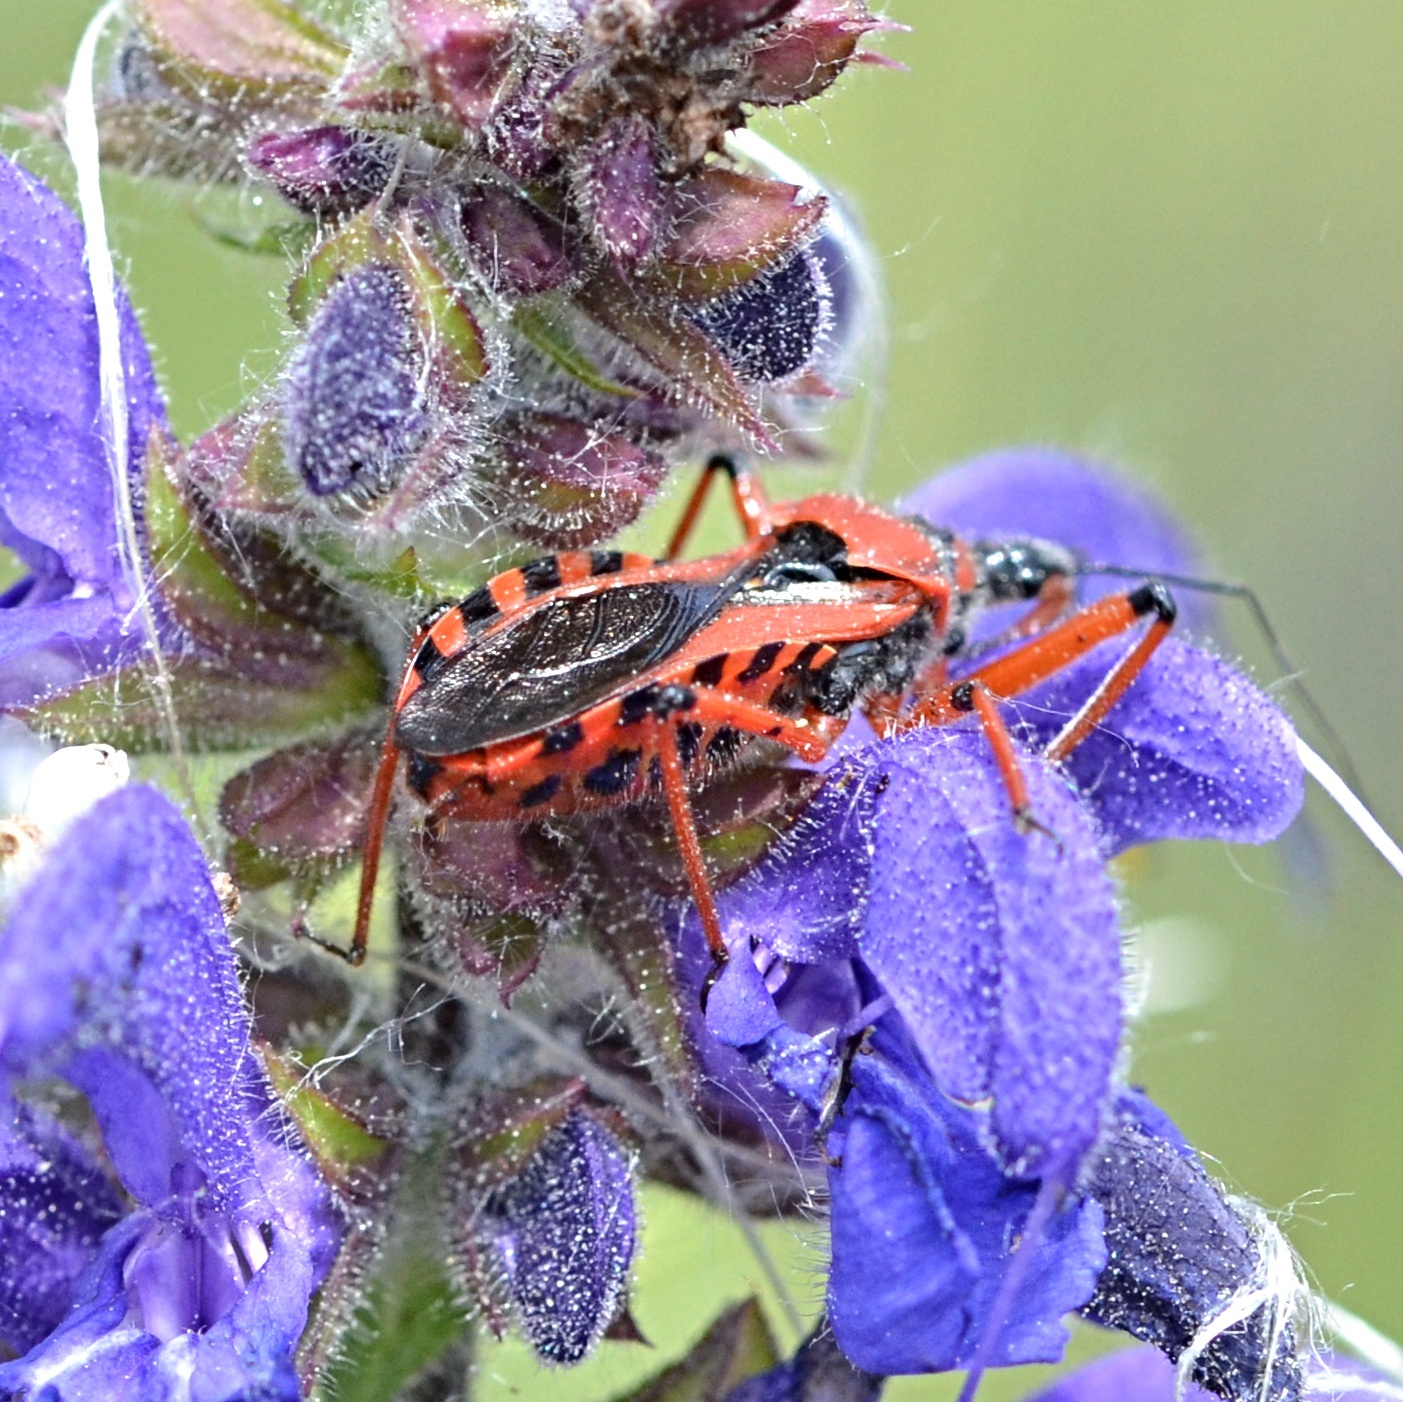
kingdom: Animalia
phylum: Arthropoda
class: Insecta
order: Hemiptera
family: Reduviidae
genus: Rhynocoris
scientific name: Rhynocoris iracundus
